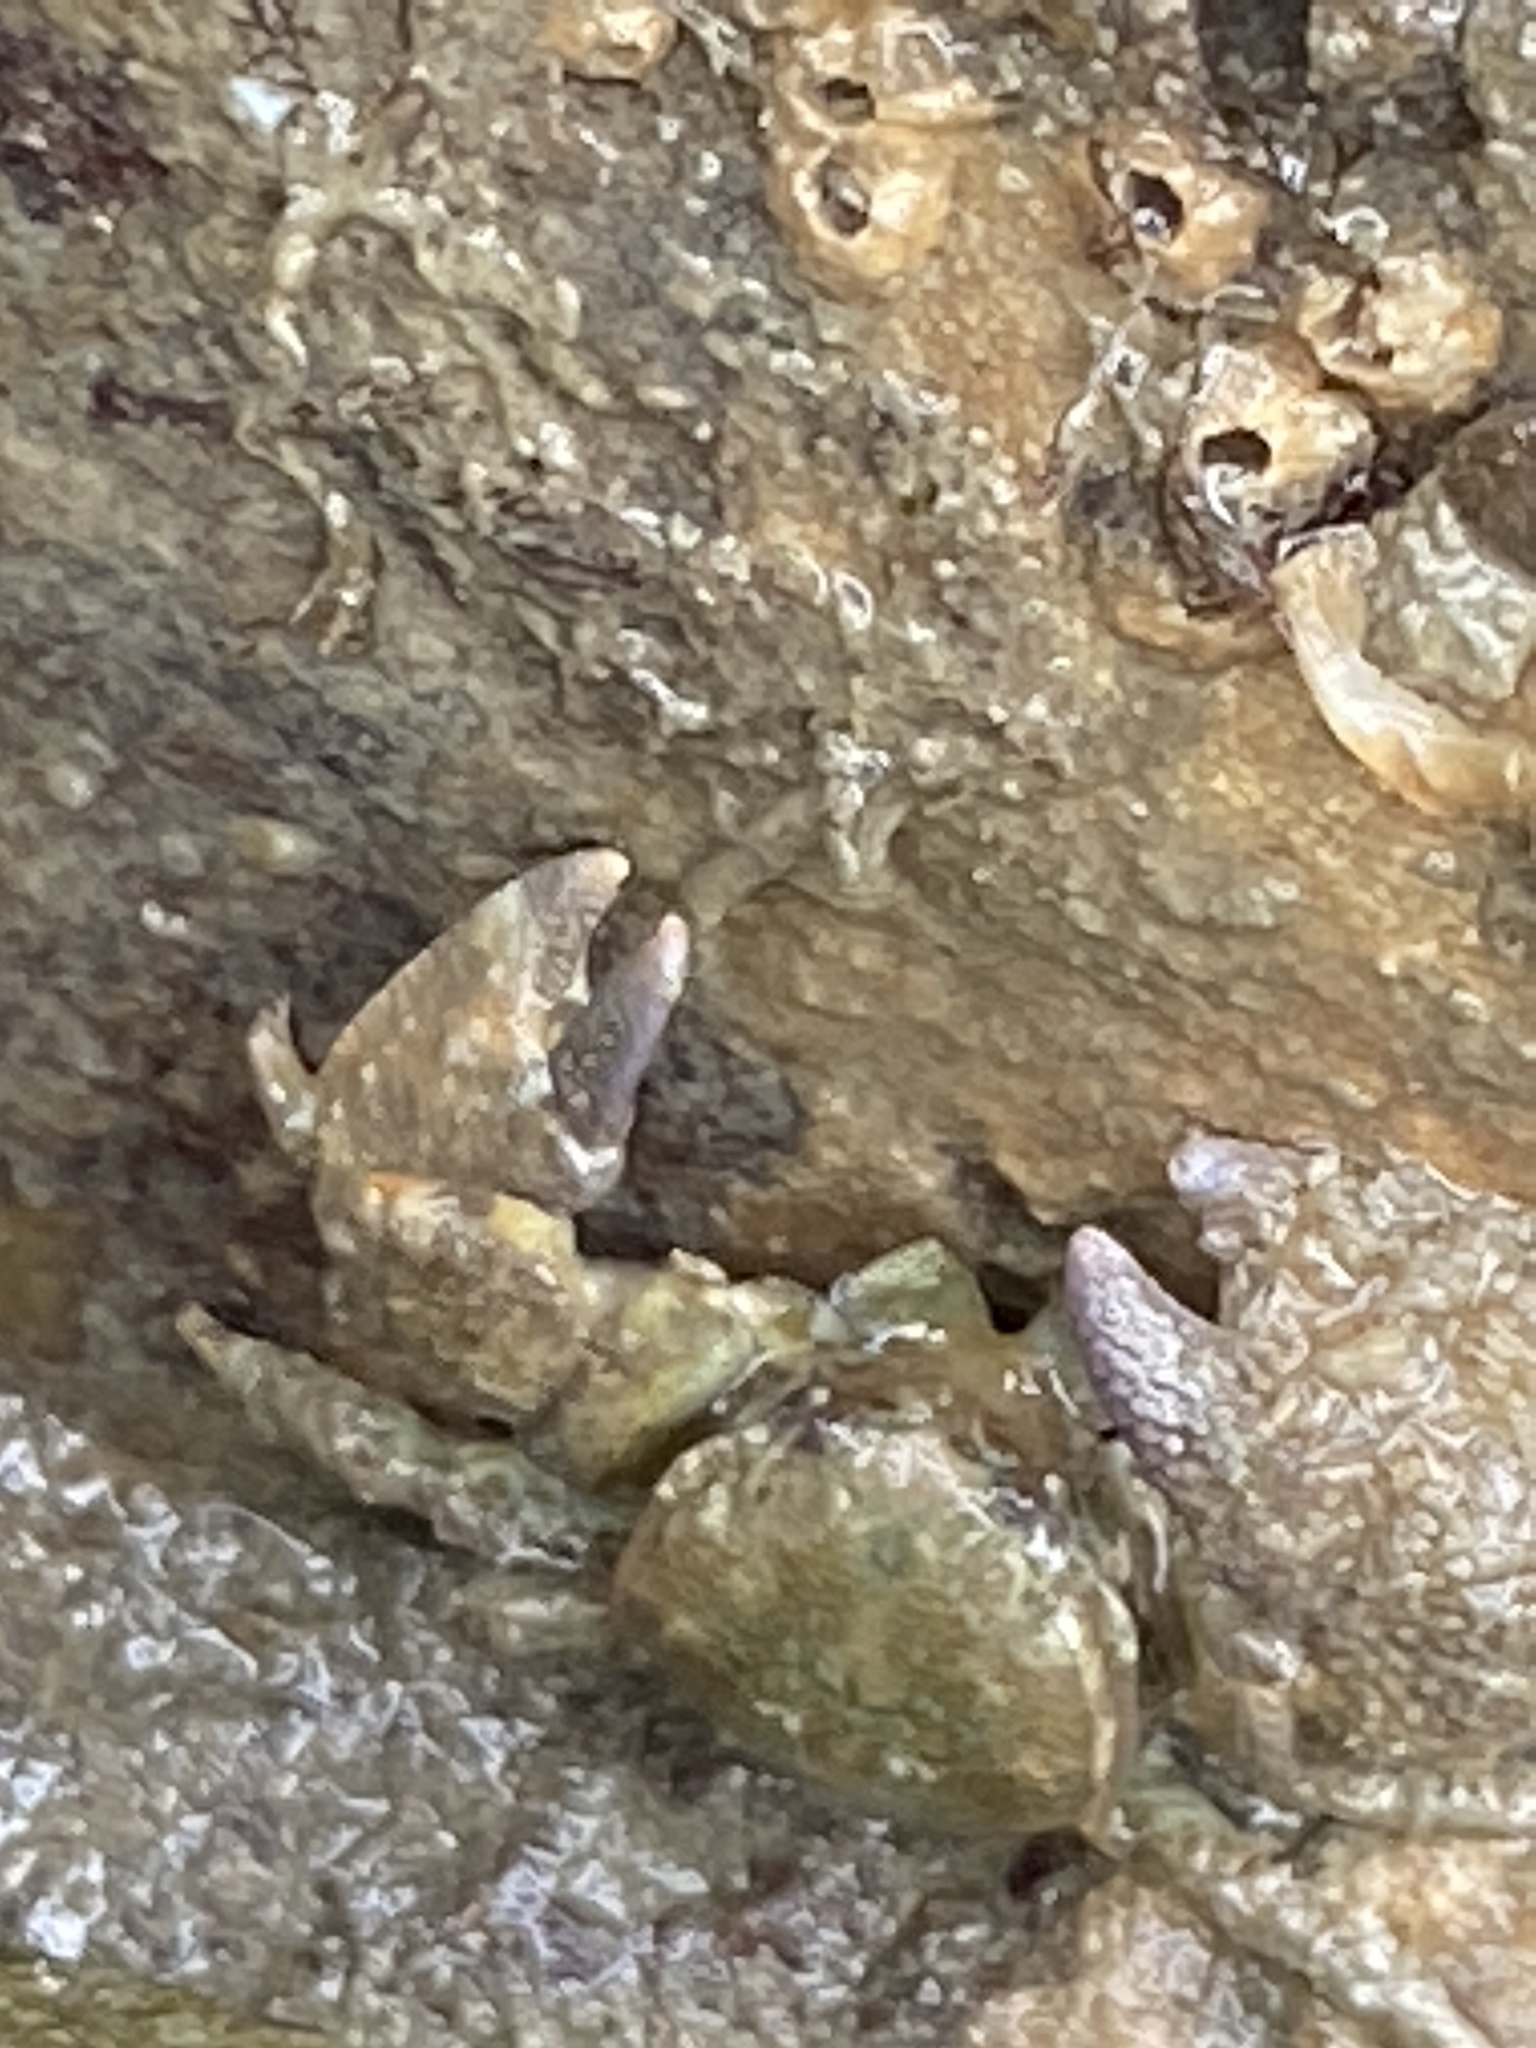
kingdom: Animalia
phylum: Arthropoda
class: Malacostraca
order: Decapoda
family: Porcellanidae
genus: Pachycheles
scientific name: Pachycheles rudis
